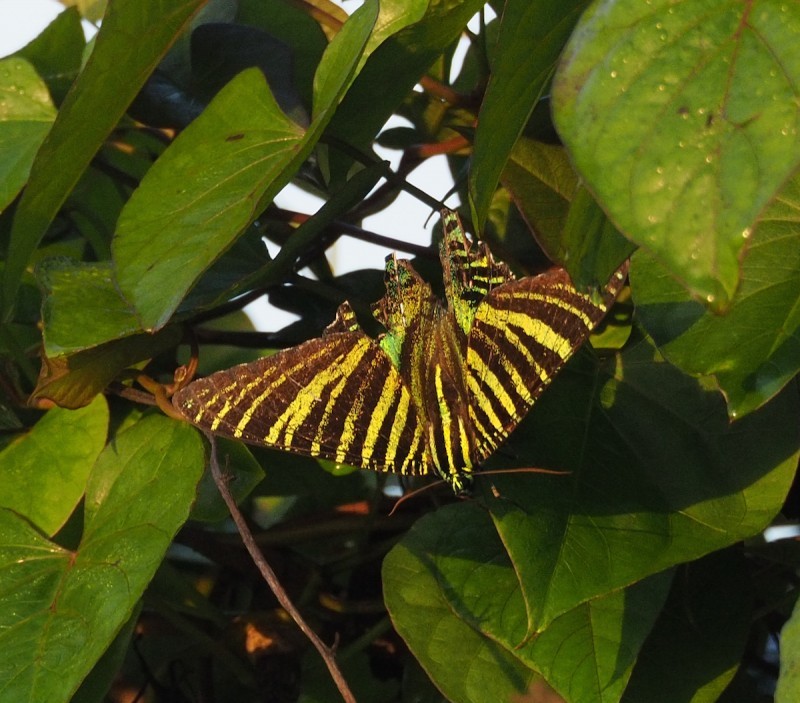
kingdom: Animalia
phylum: Arthropoda
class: Insecta
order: Lepidoptera
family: Uraniidae
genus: Urania
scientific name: Urania boisduvalii
